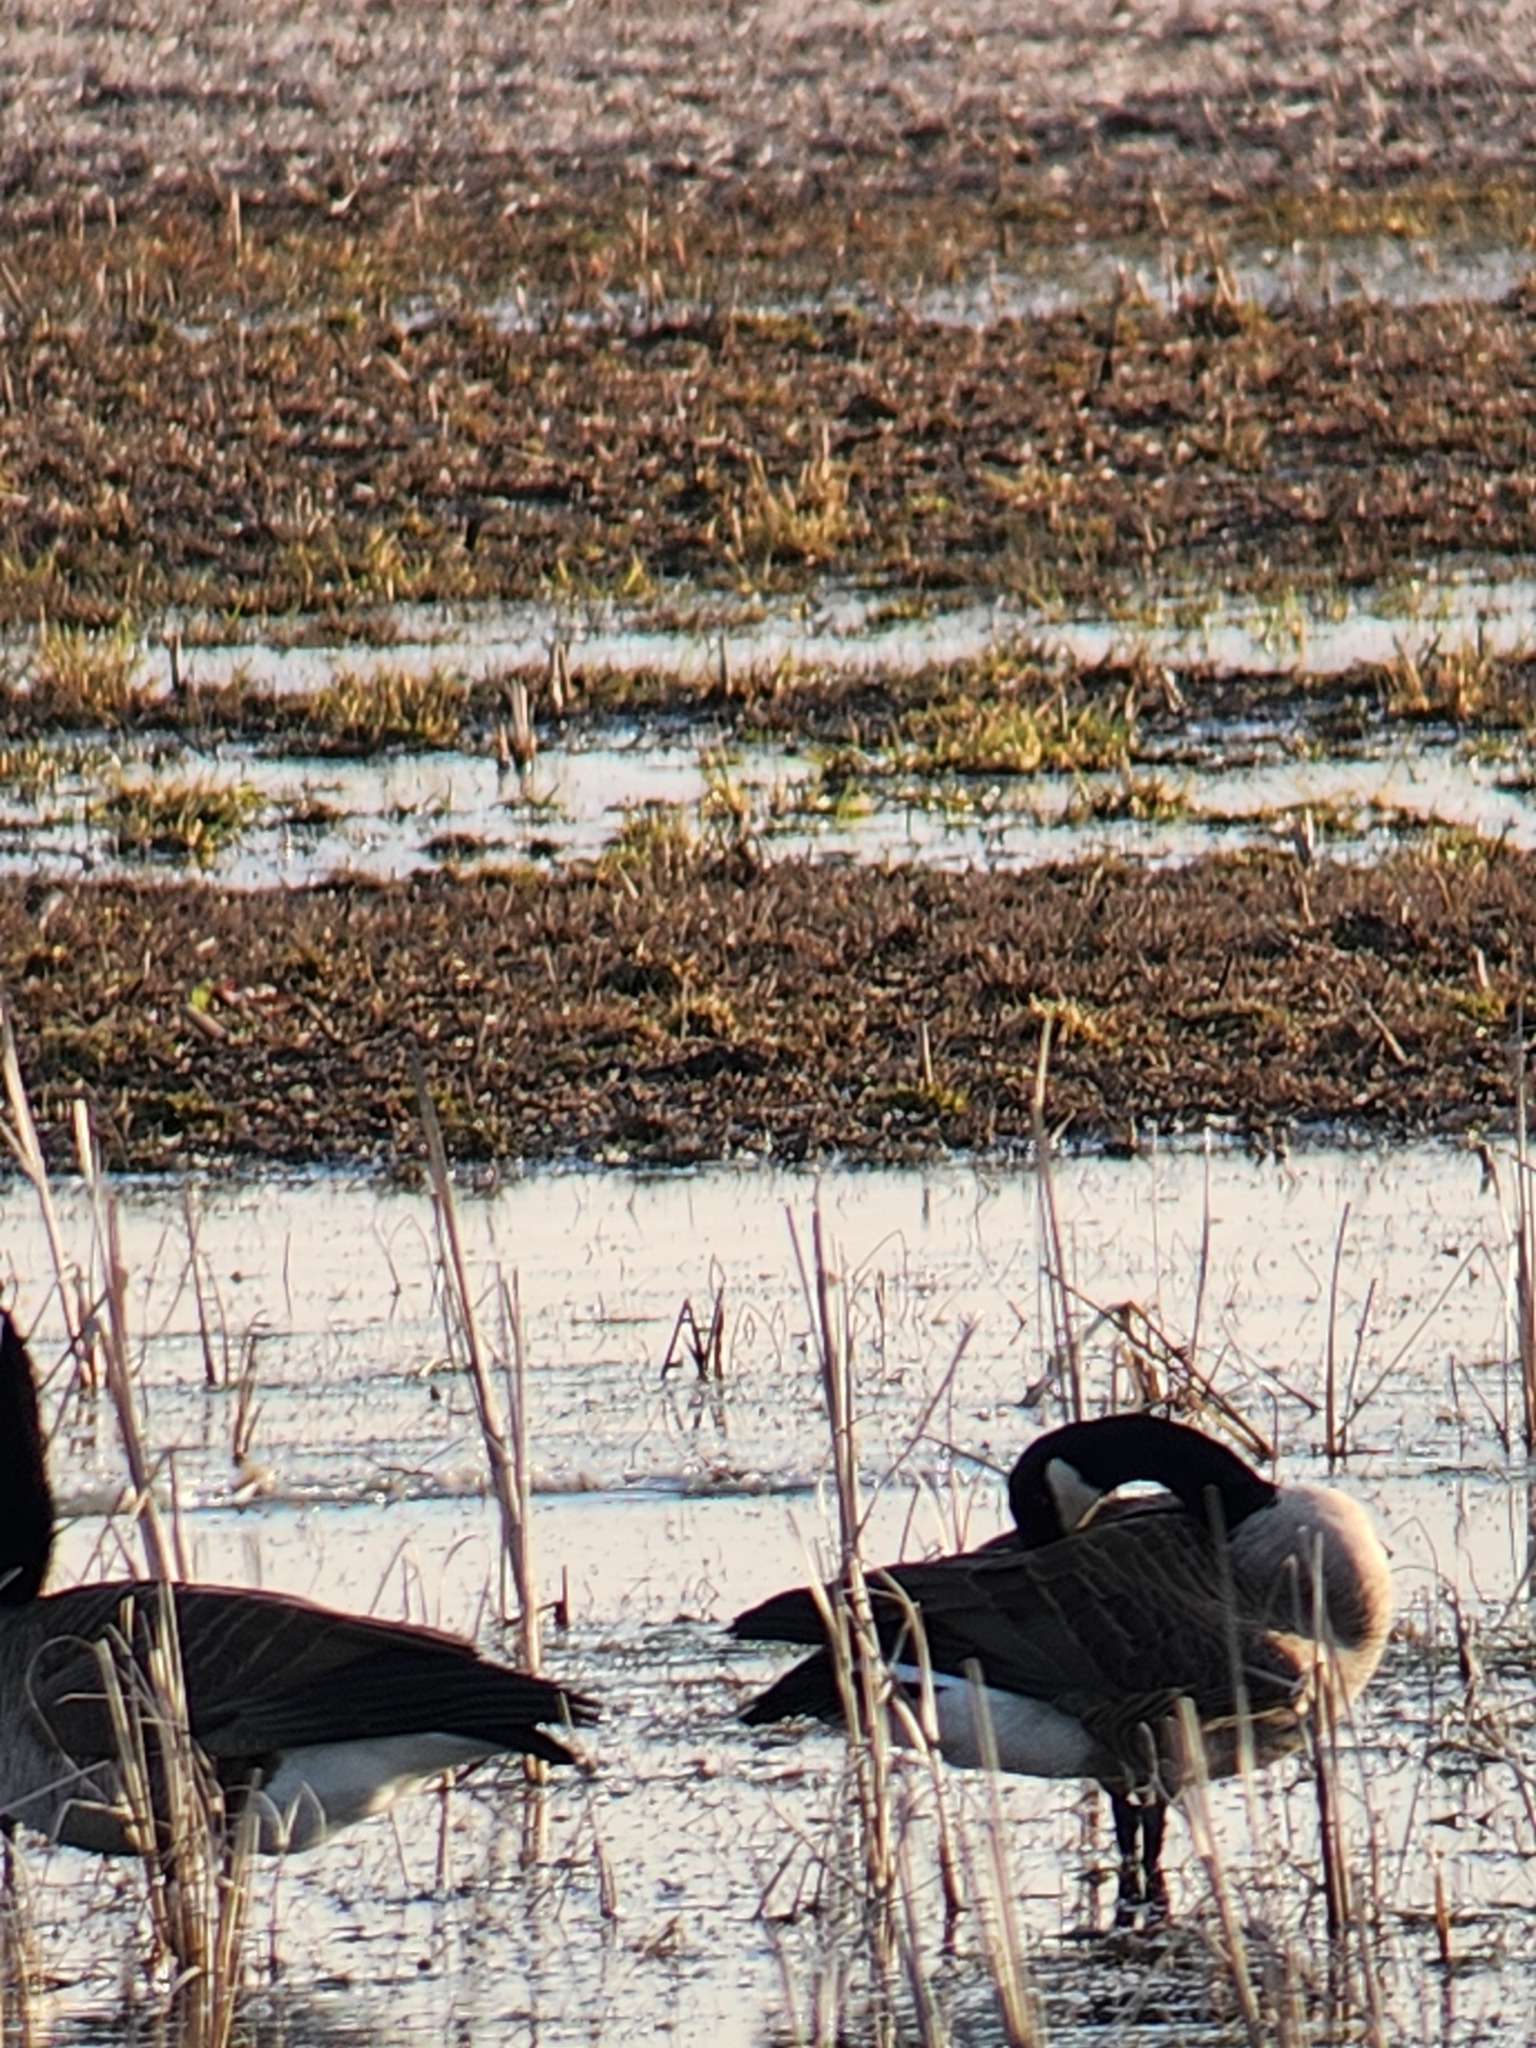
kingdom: Animalia
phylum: Chordata
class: Aves
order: Anseriformes
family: Anatidae
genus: Branta
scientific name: Branta canadensis
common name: Canada goose
